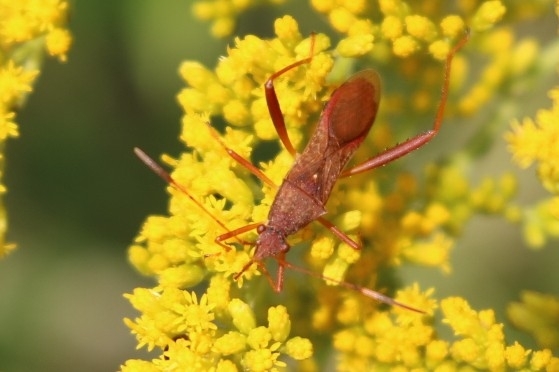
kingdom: Animalia
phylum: Arthropoda
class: Insecta
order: Hemiptera
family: Alydidae
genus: Megalotomus
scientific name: Megalotomus quinquespinosus
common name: Lupine bug
